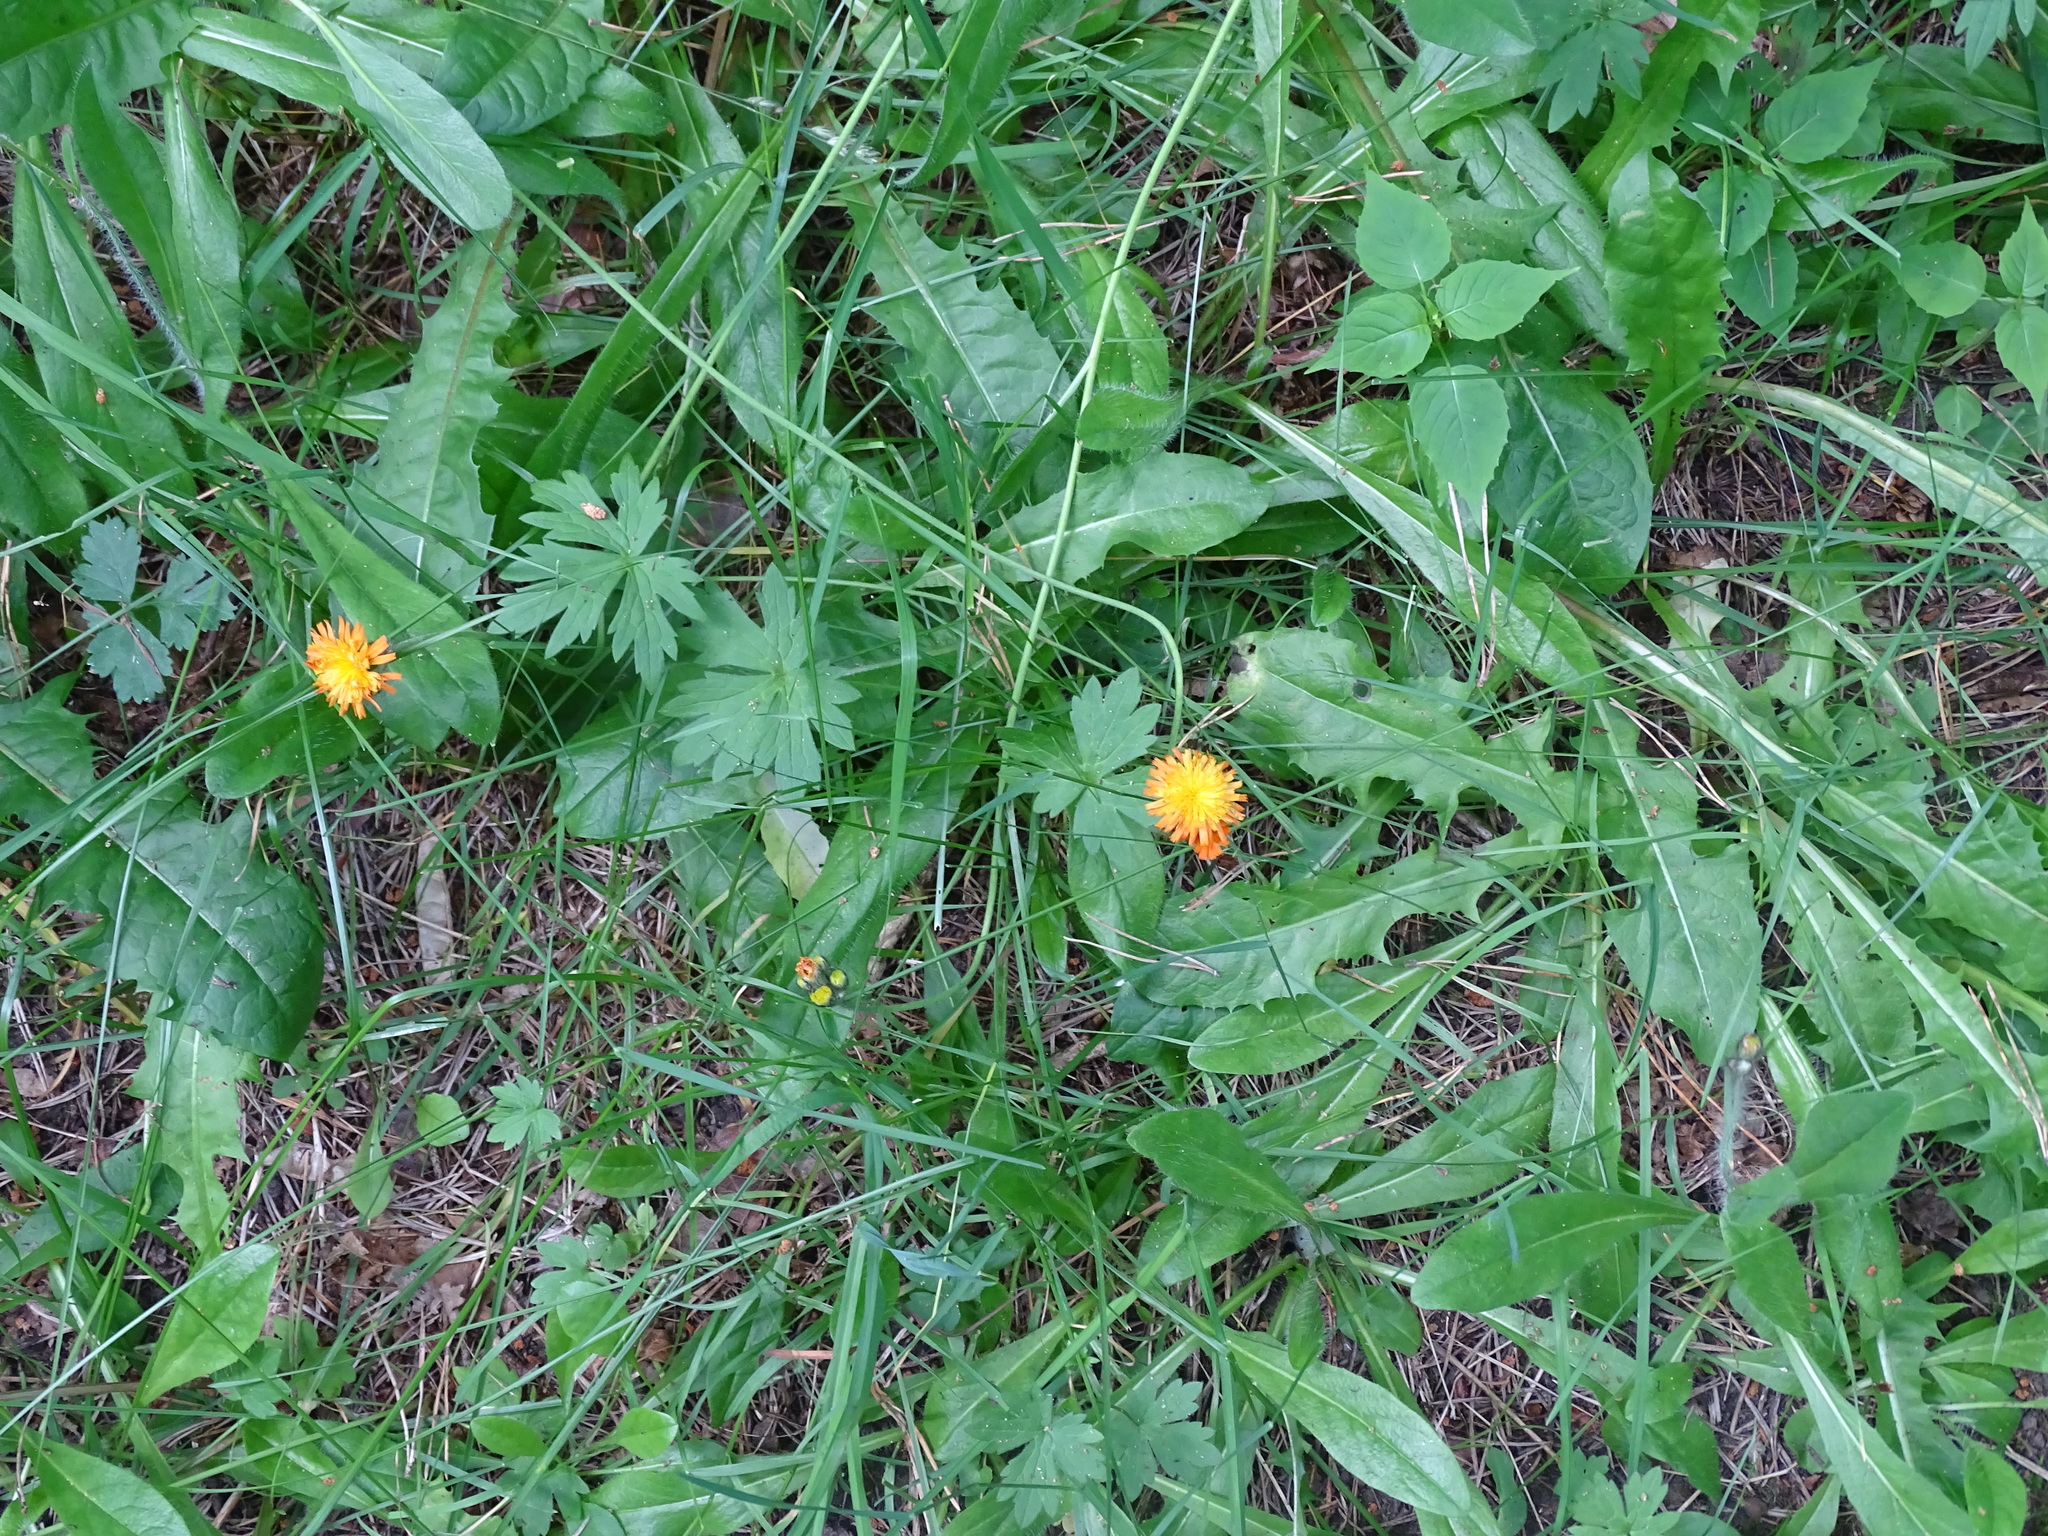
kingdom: Plantae
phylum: Tracheophyta
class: Magnoliopsida
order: Asterales
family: Asteraceae
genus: Pilosella
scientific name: Pilosella aurantiaca
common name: Fox-and-cubs
